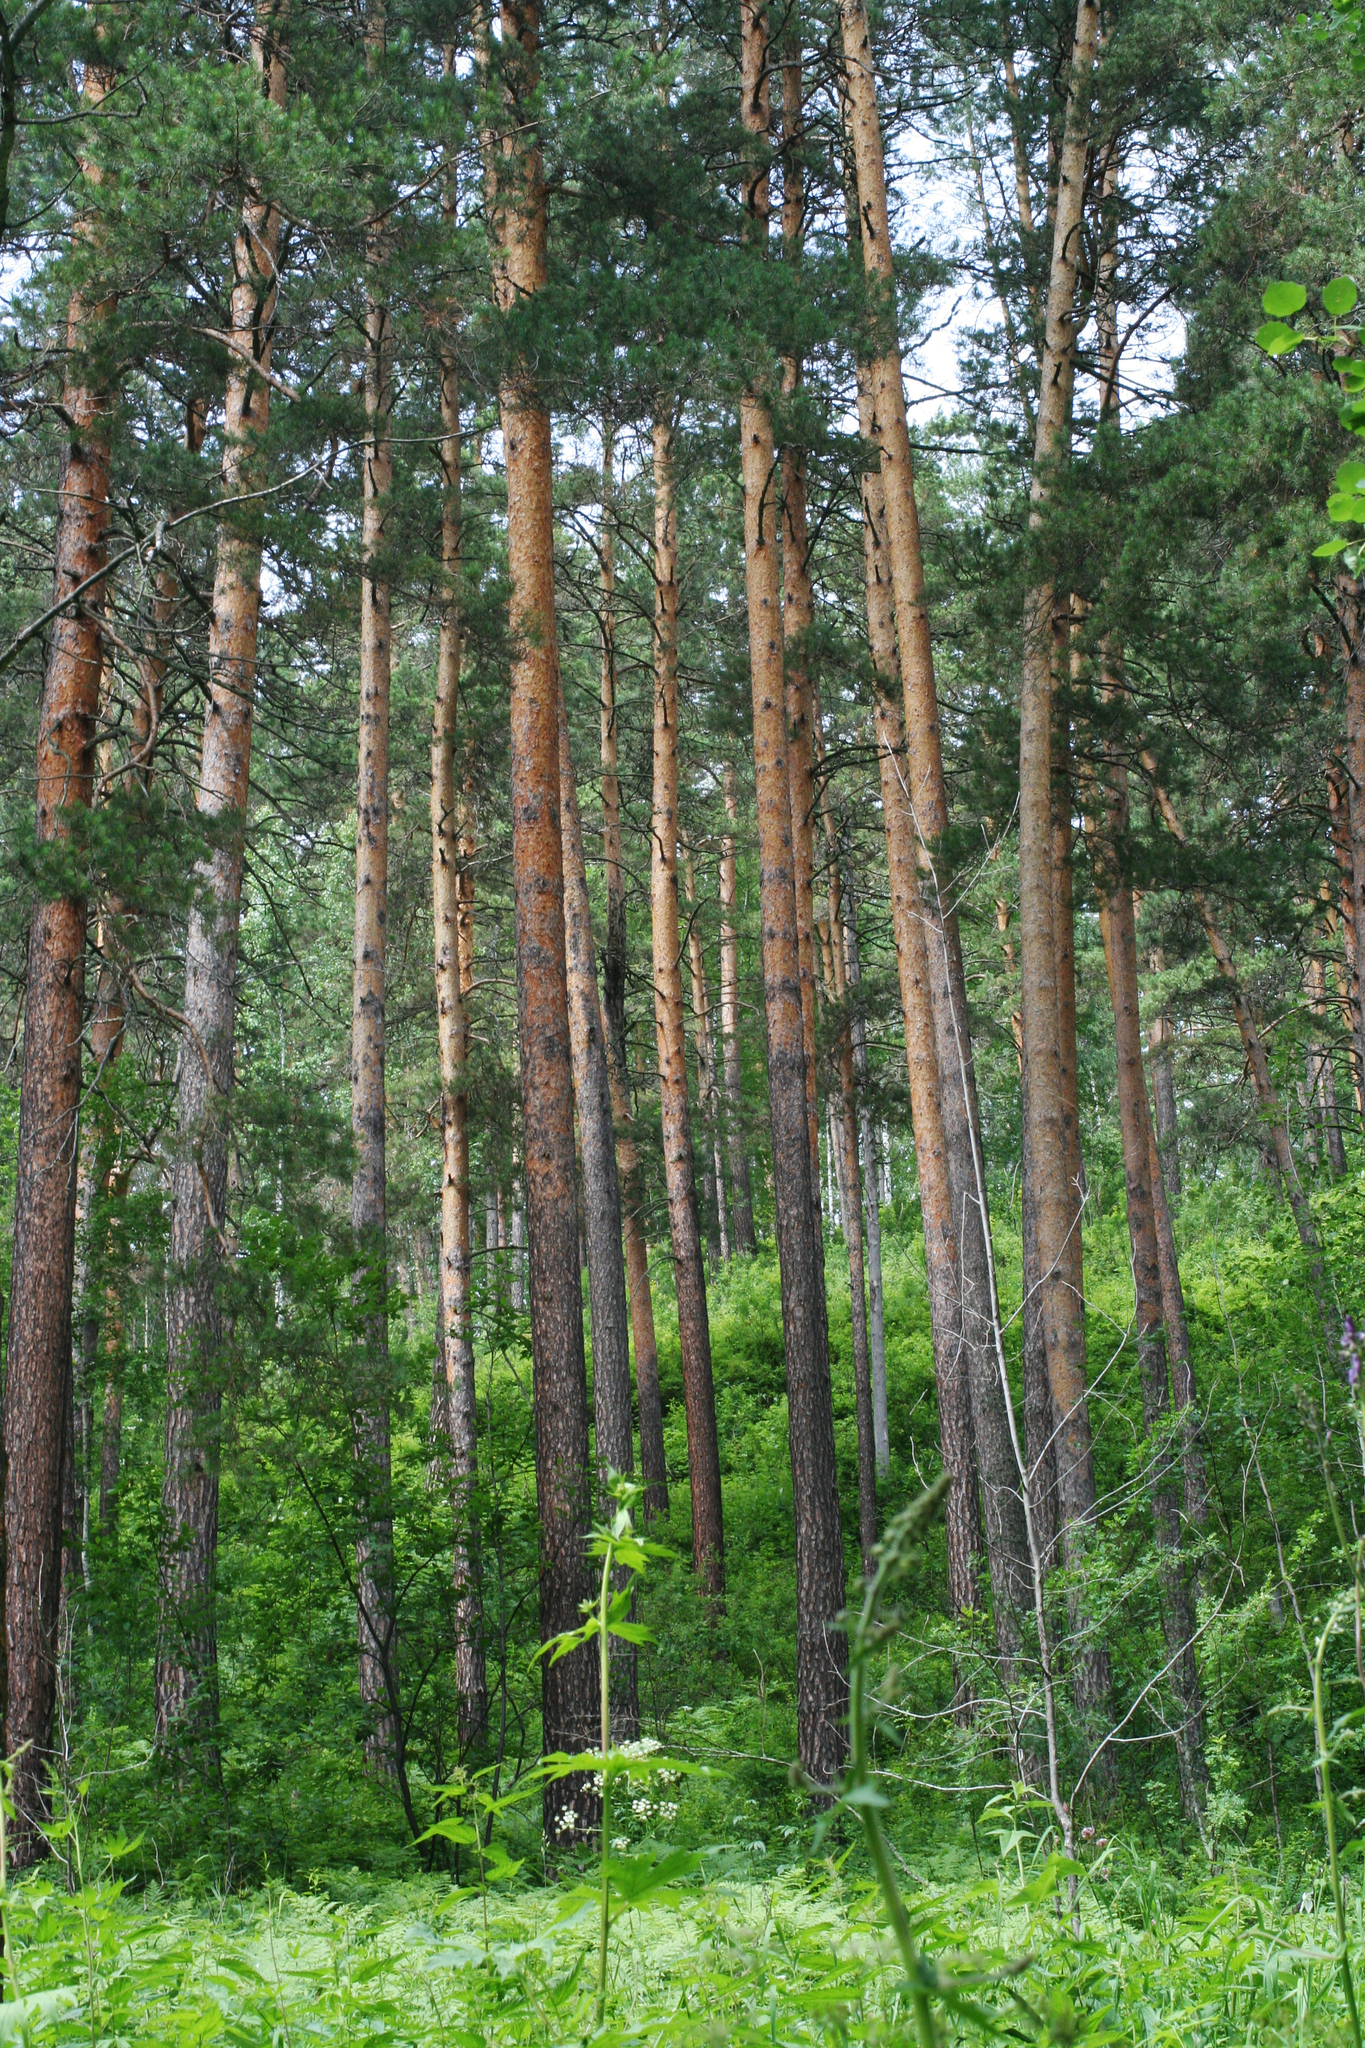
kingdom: Plantae
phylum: Tracheophyta
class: Pinopsida
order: Pinales
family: Pinaceae
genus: Pinus
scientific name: Pinus sylvestris
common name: Scots pine
